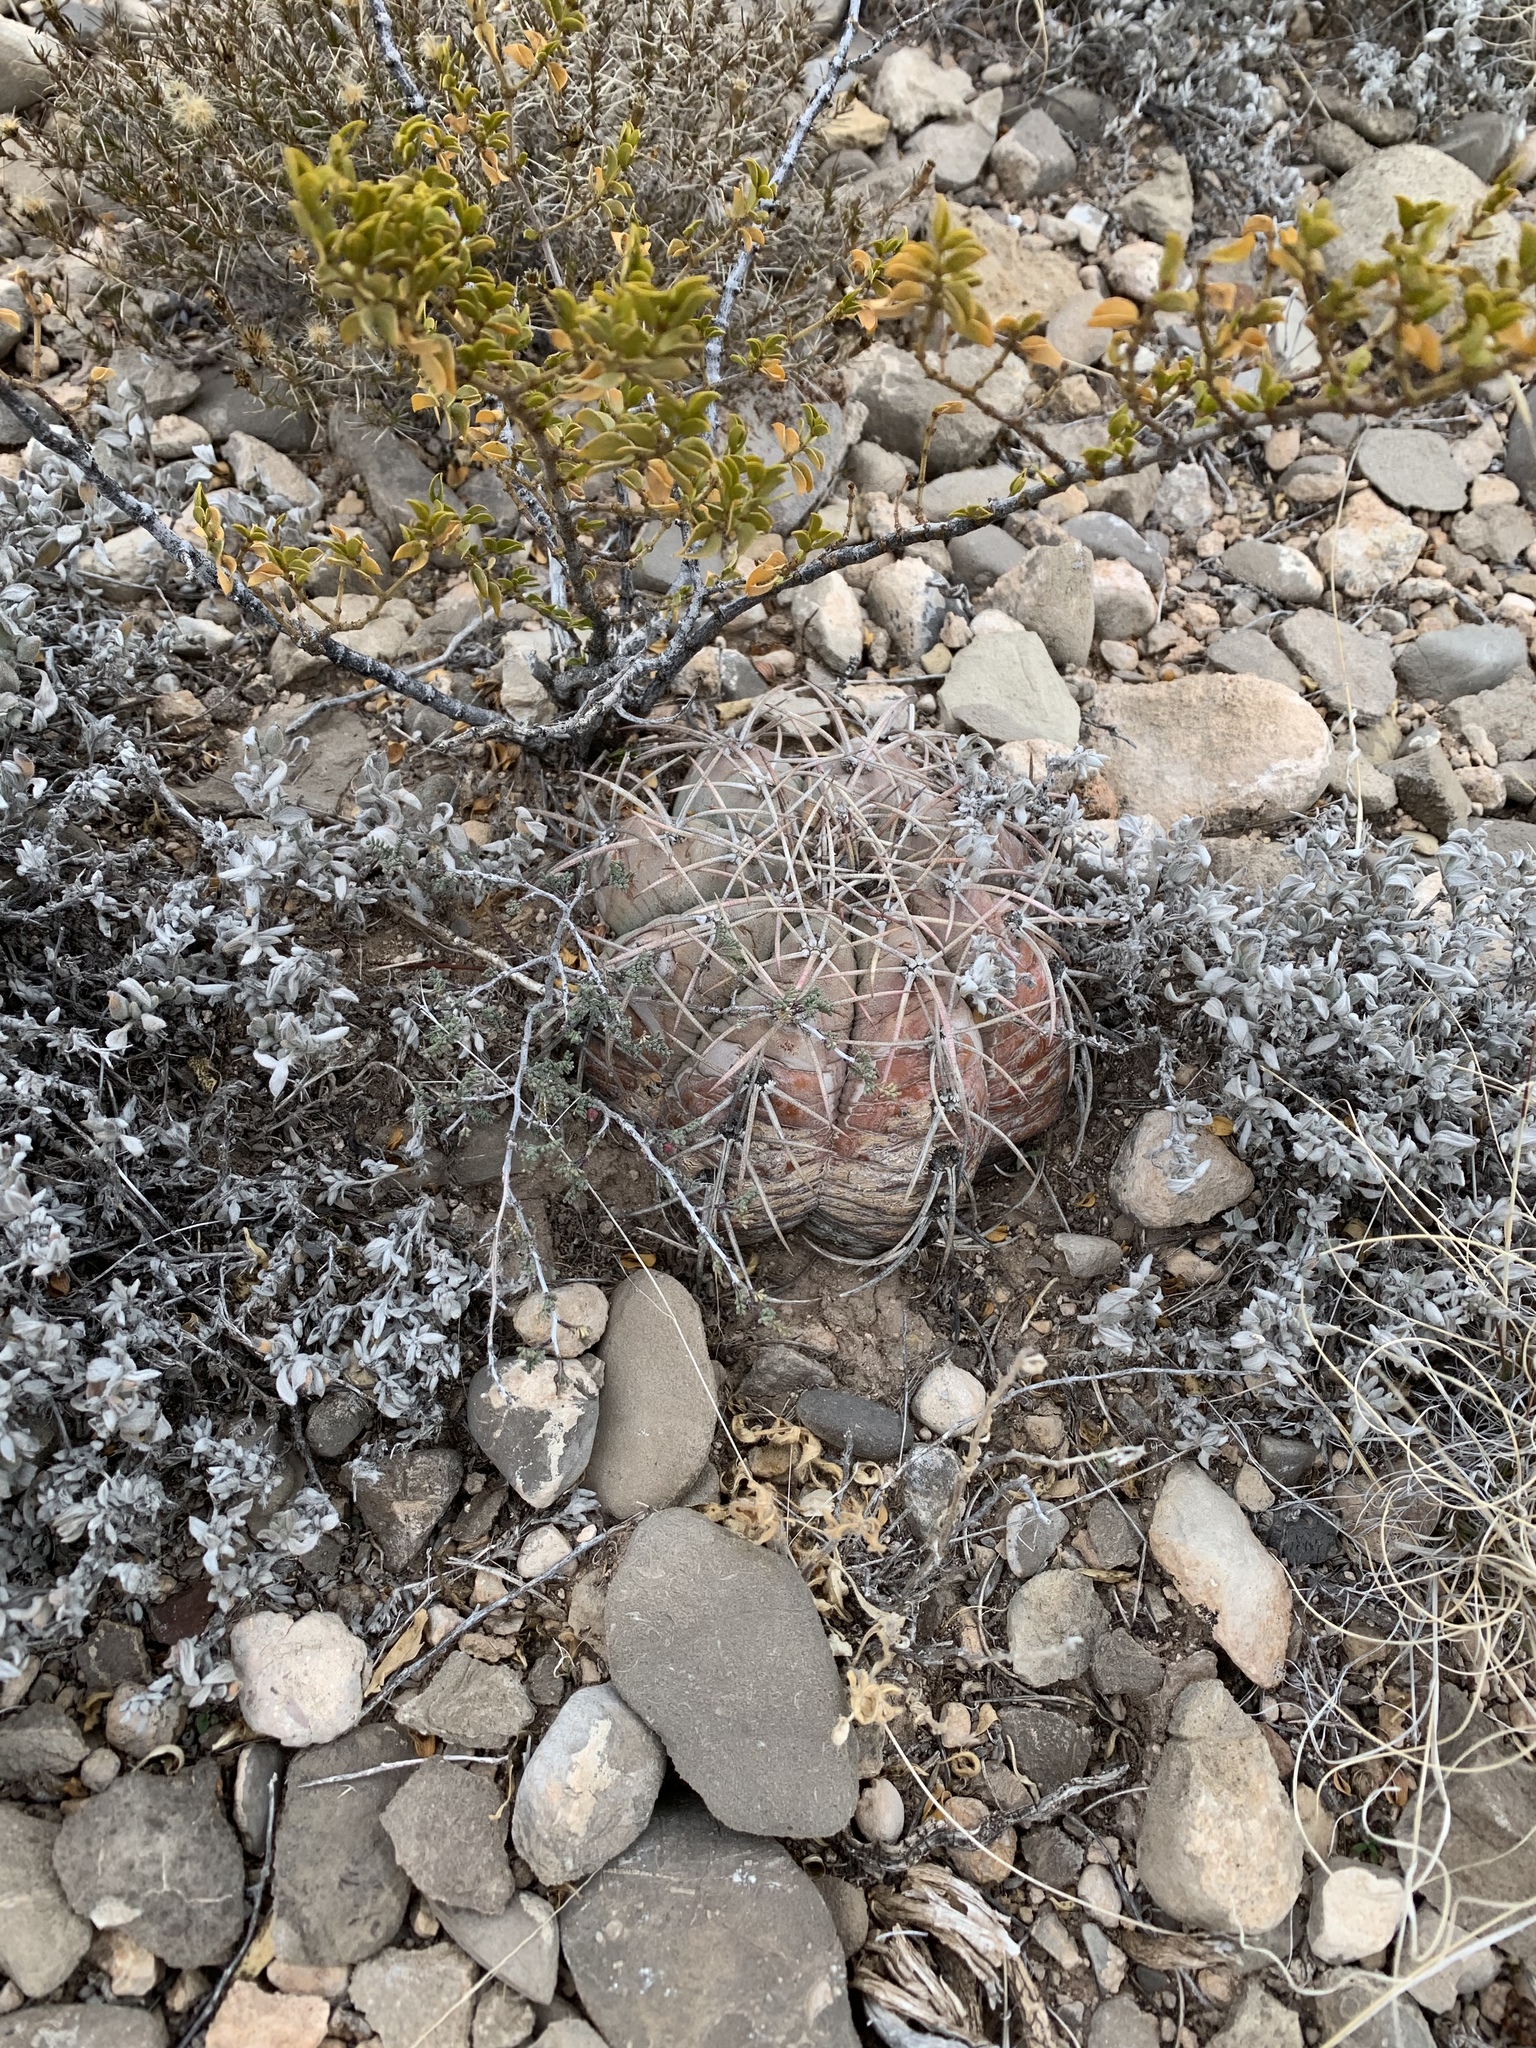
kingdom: Plantae
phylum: Tracheophyta
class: Magnoliopsida
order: Caryophyllales
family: Cactaceae
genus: Echinocactus
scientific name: Echinocactus horizonthalonius
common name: Devilshead
